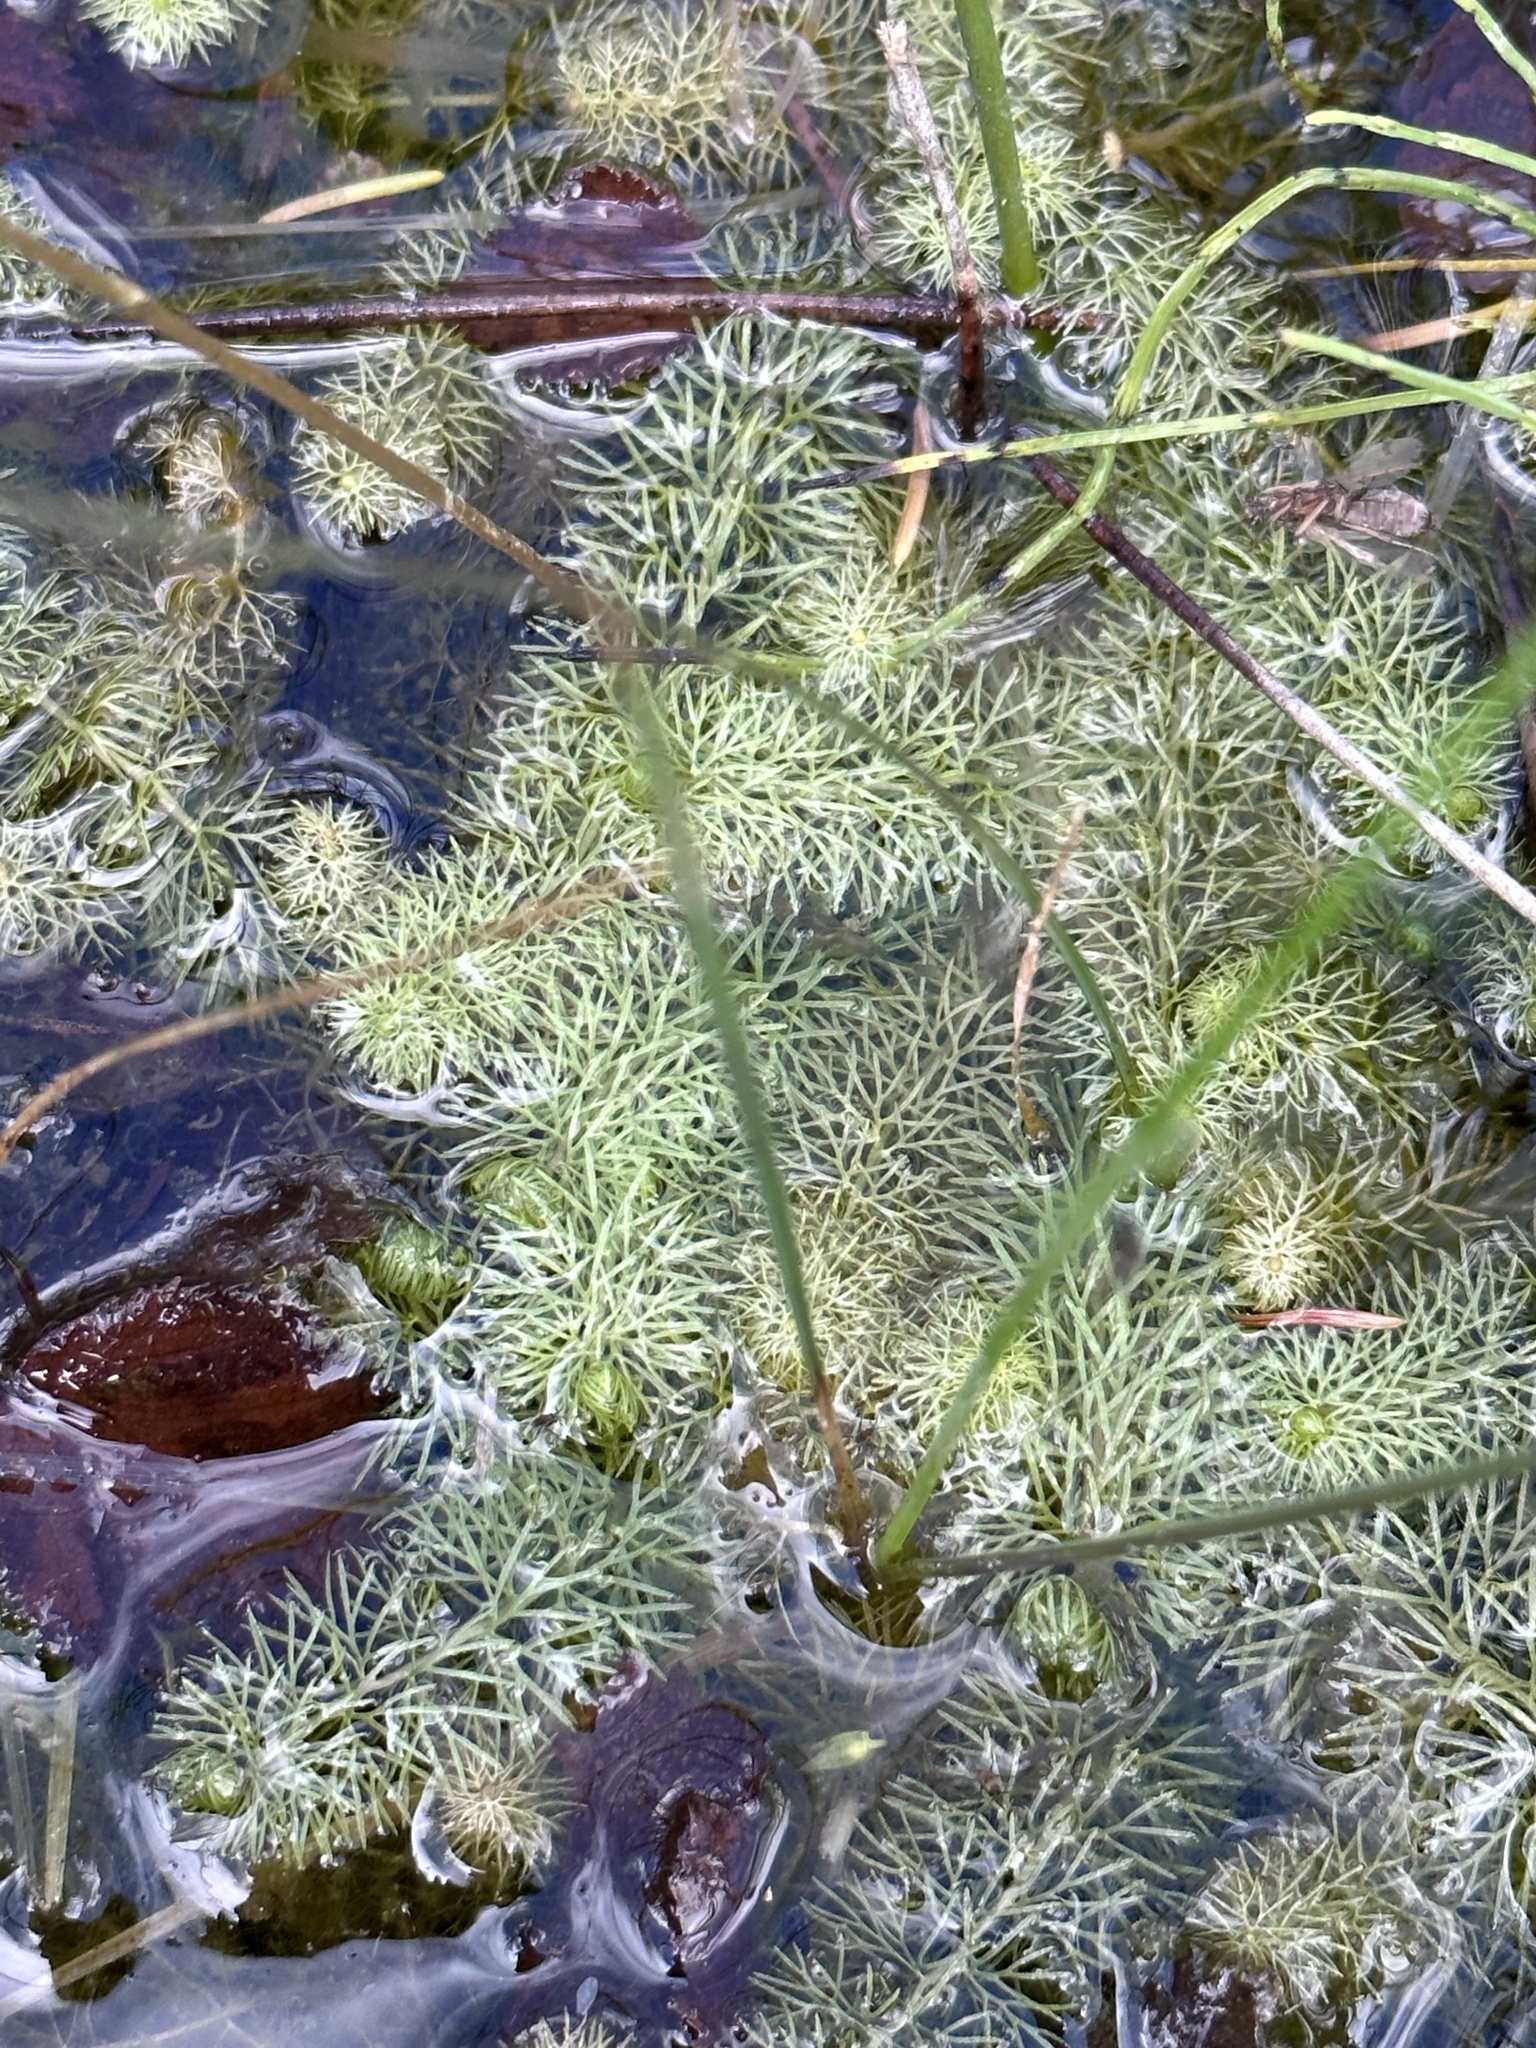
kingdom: Plantae
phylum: Tracheophyta
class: Magnoliopsida
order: Lamiales
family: Lentibulariaceae
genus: Utricularia
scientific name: Utricularia intermedia
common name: Intermediate bladderwort
